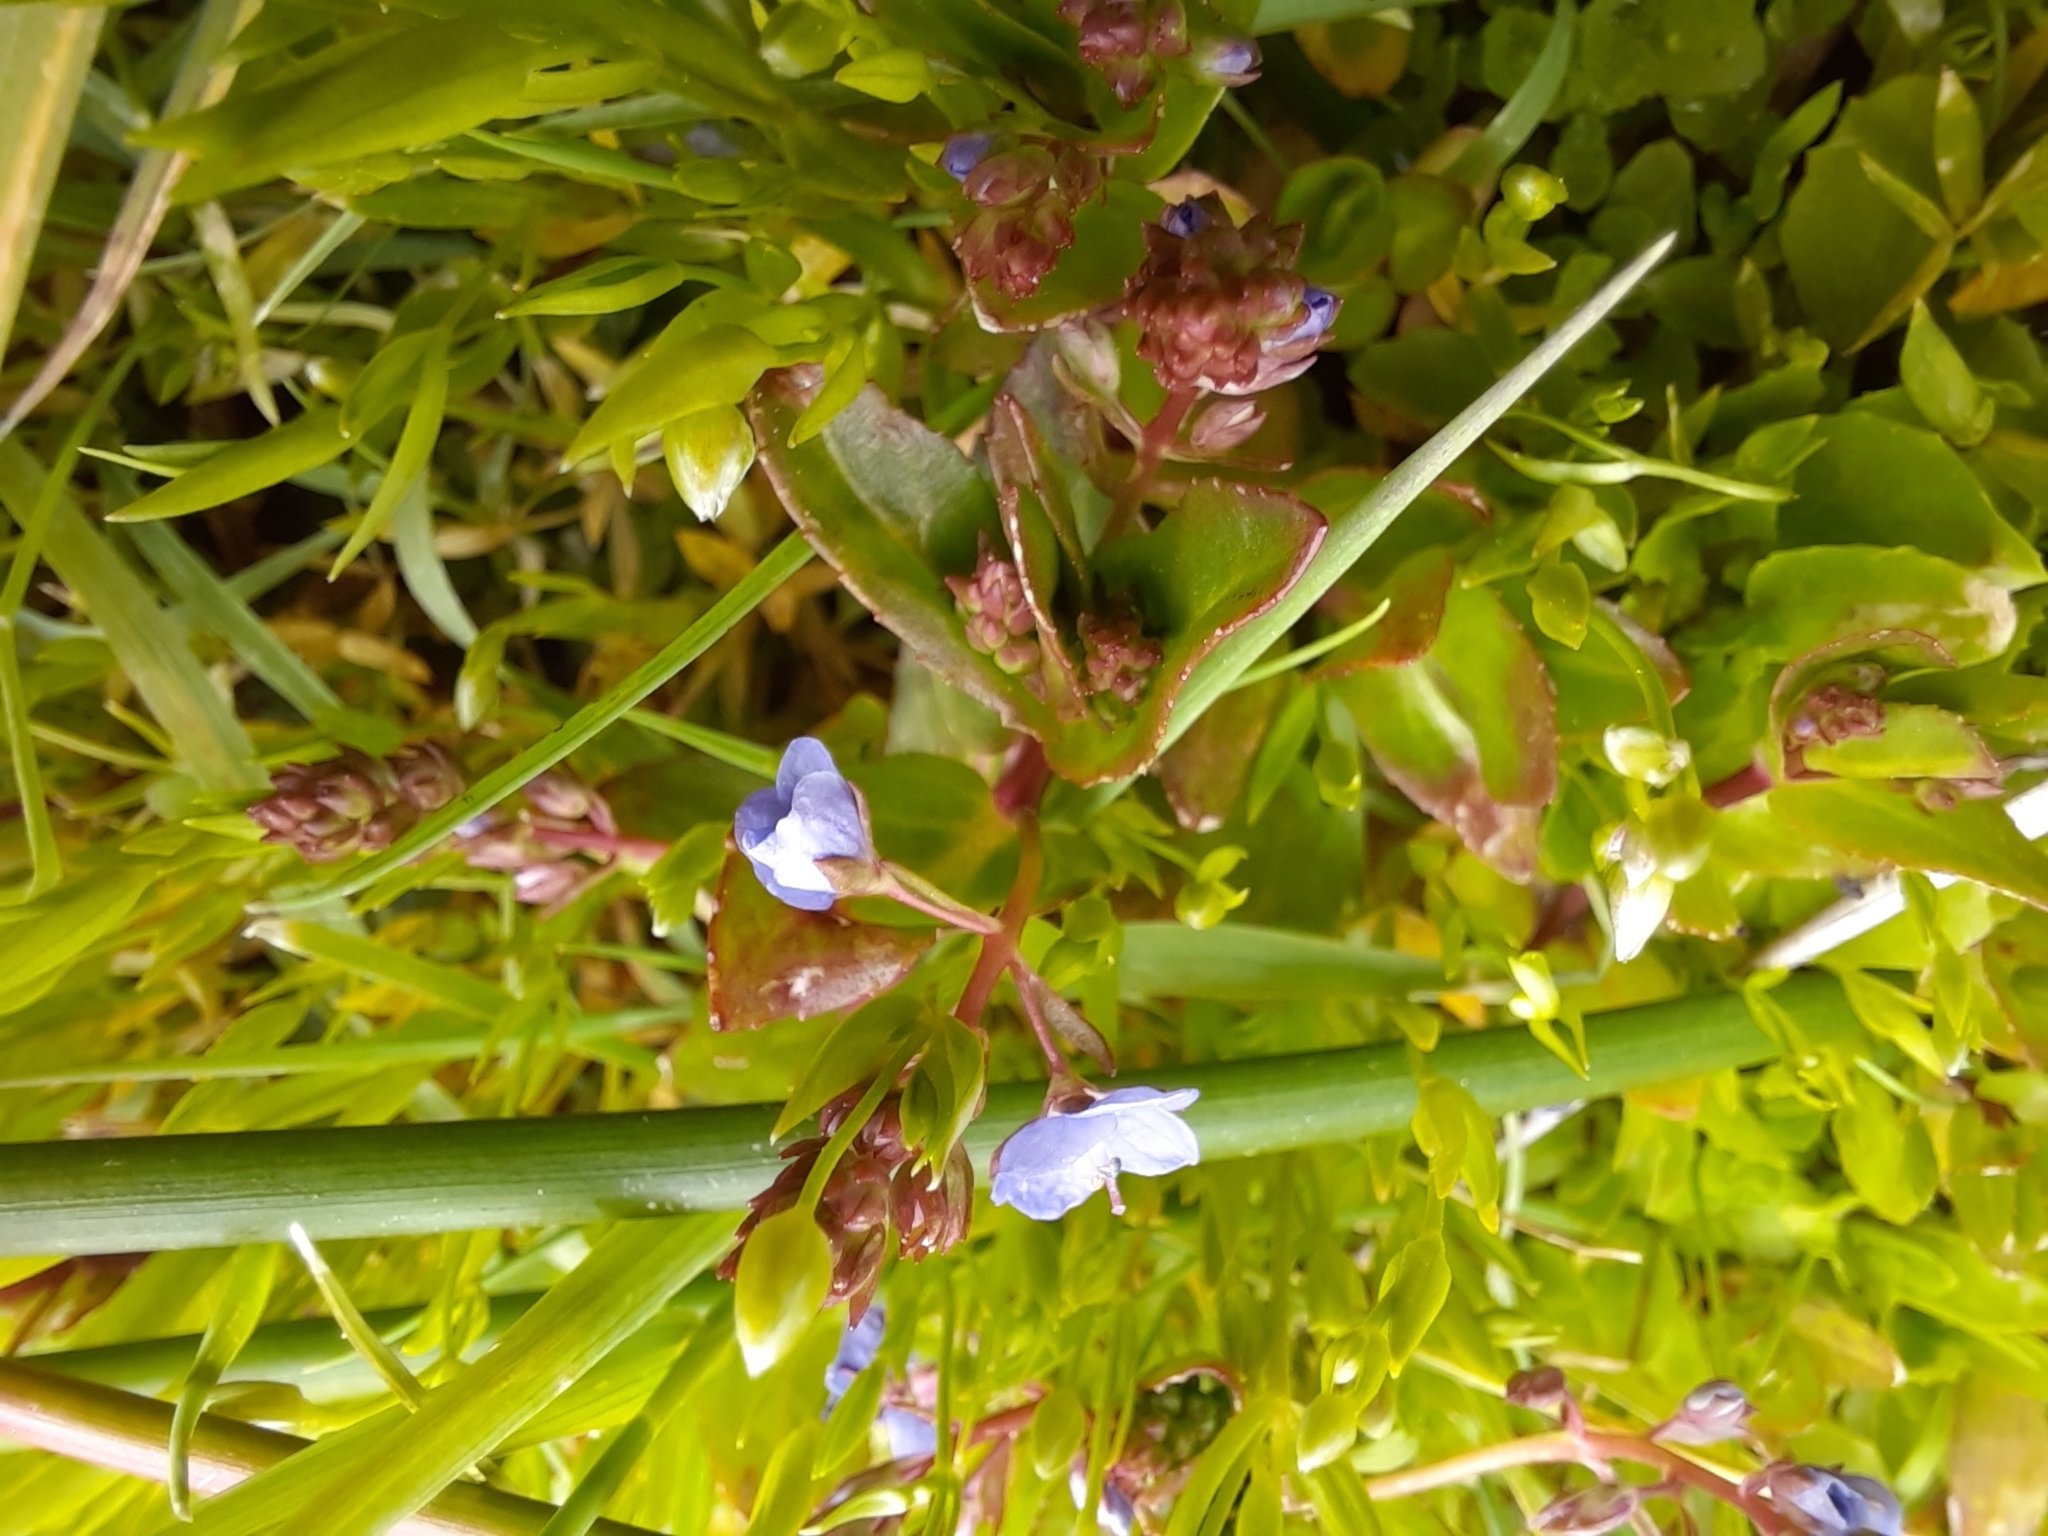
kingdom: Plantae
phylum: Tracheophyta
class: Magnoliopsida
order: Lamiales
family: Plantaginaceae
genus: Veronica
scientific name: Veronica americana
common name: American brooklime
